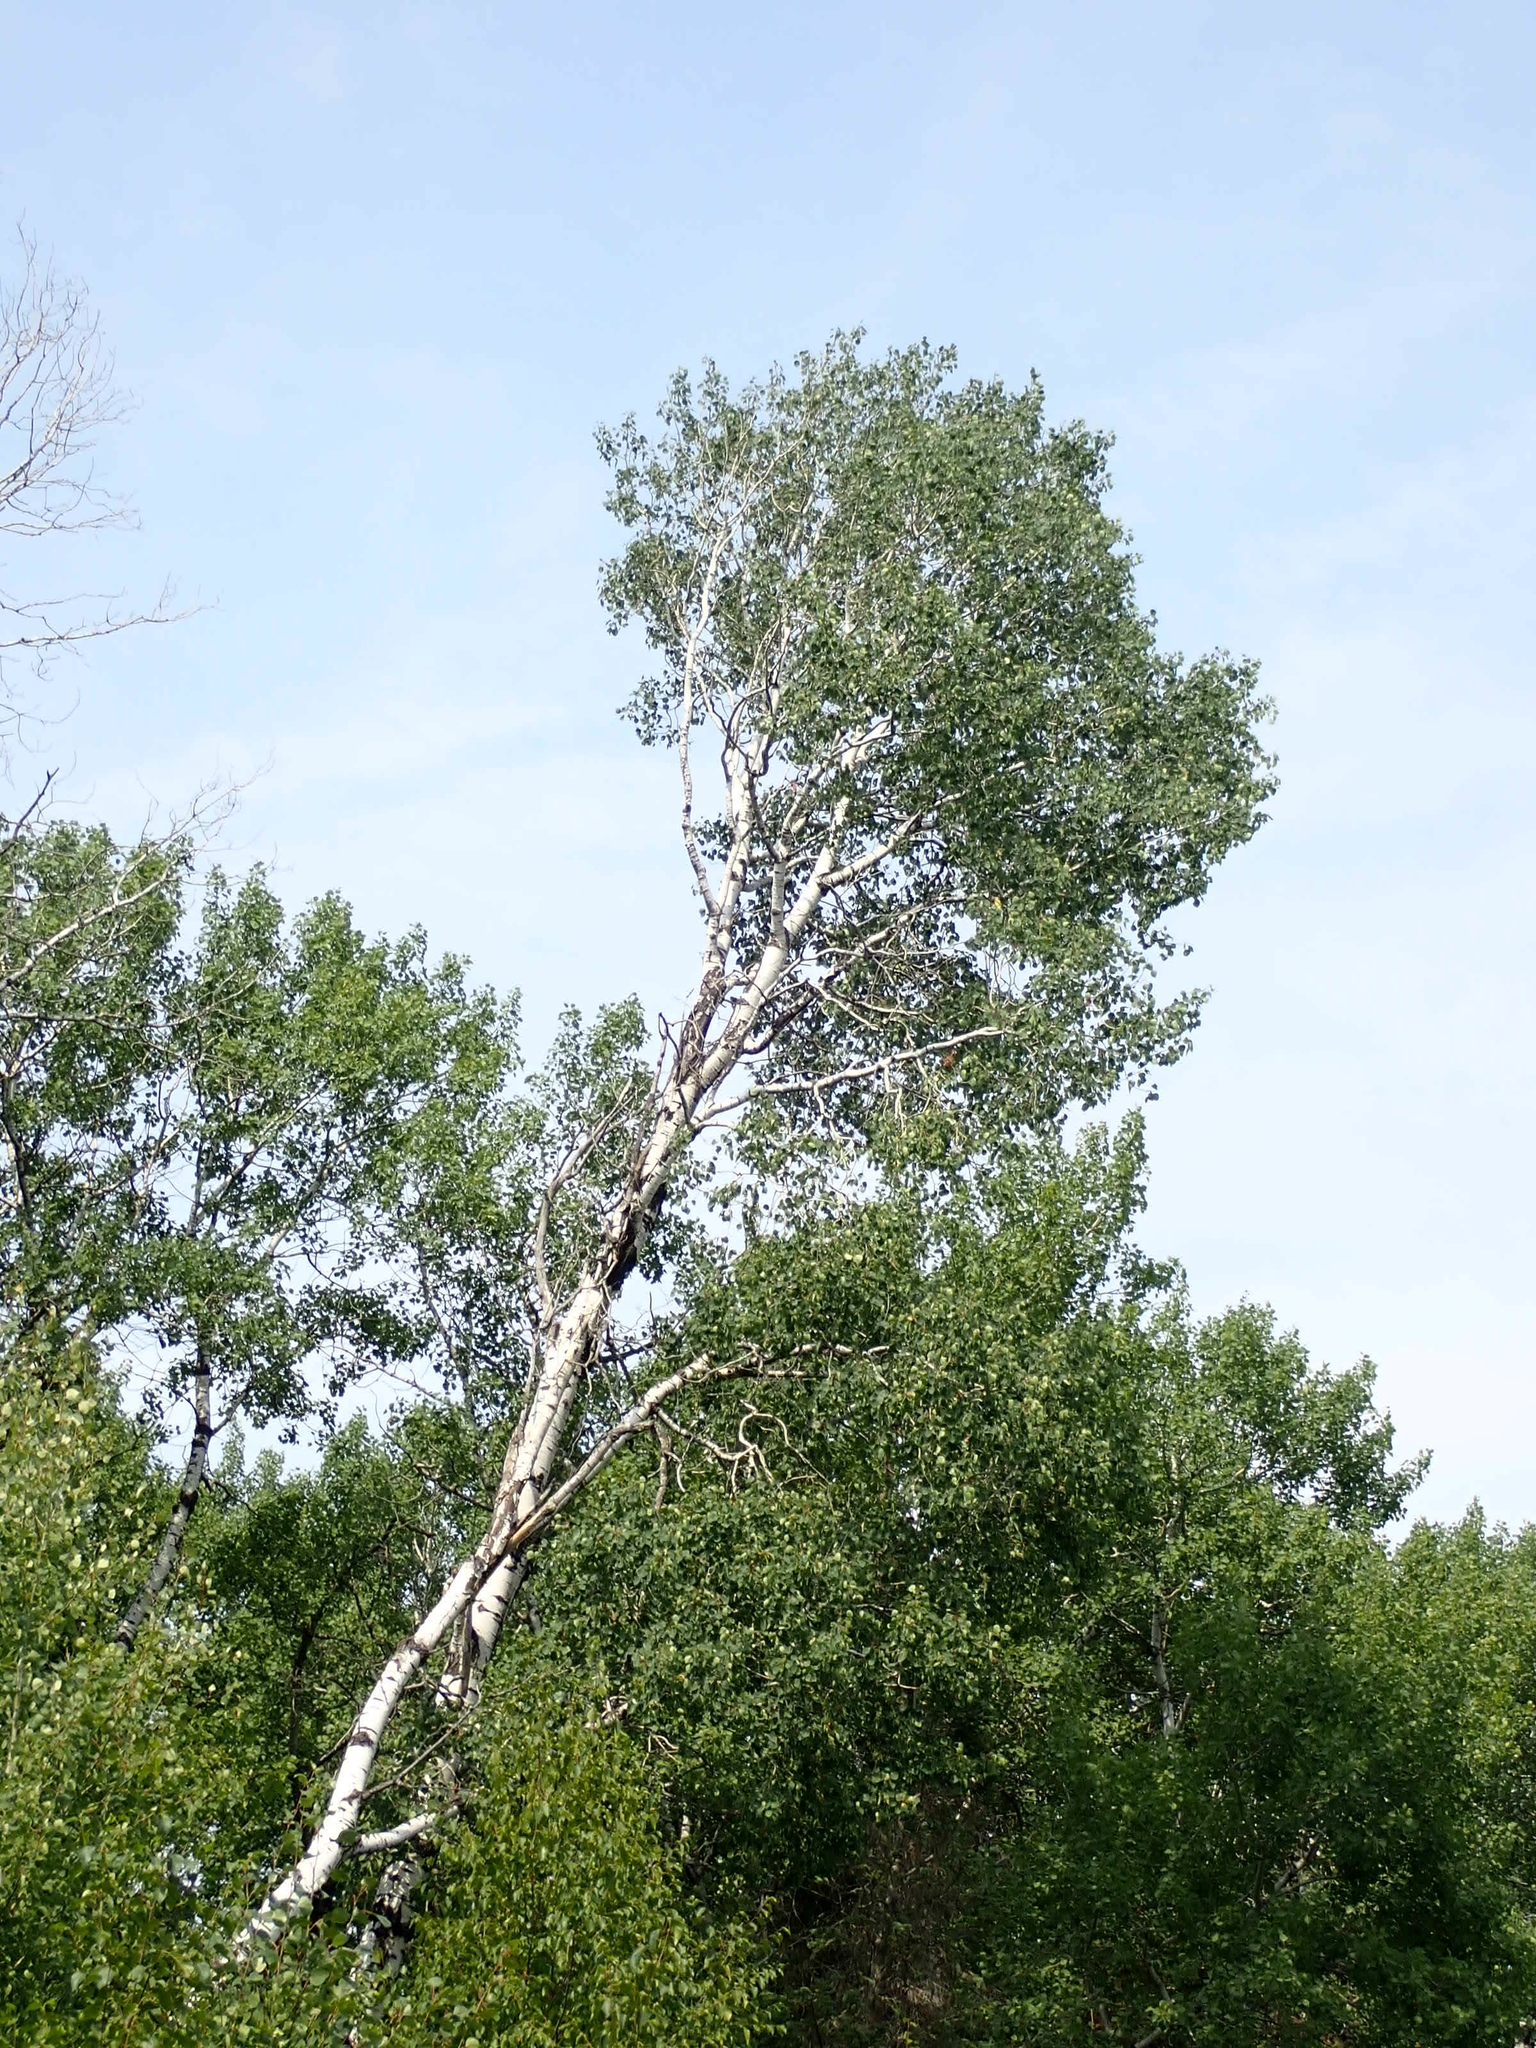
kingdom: Plantae
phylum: Tracheophyta
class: Magnoliopsida
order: Malpighiales
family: Salicaceae
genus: Populus
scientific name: Populus tremuloides
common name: Quaking aspen
